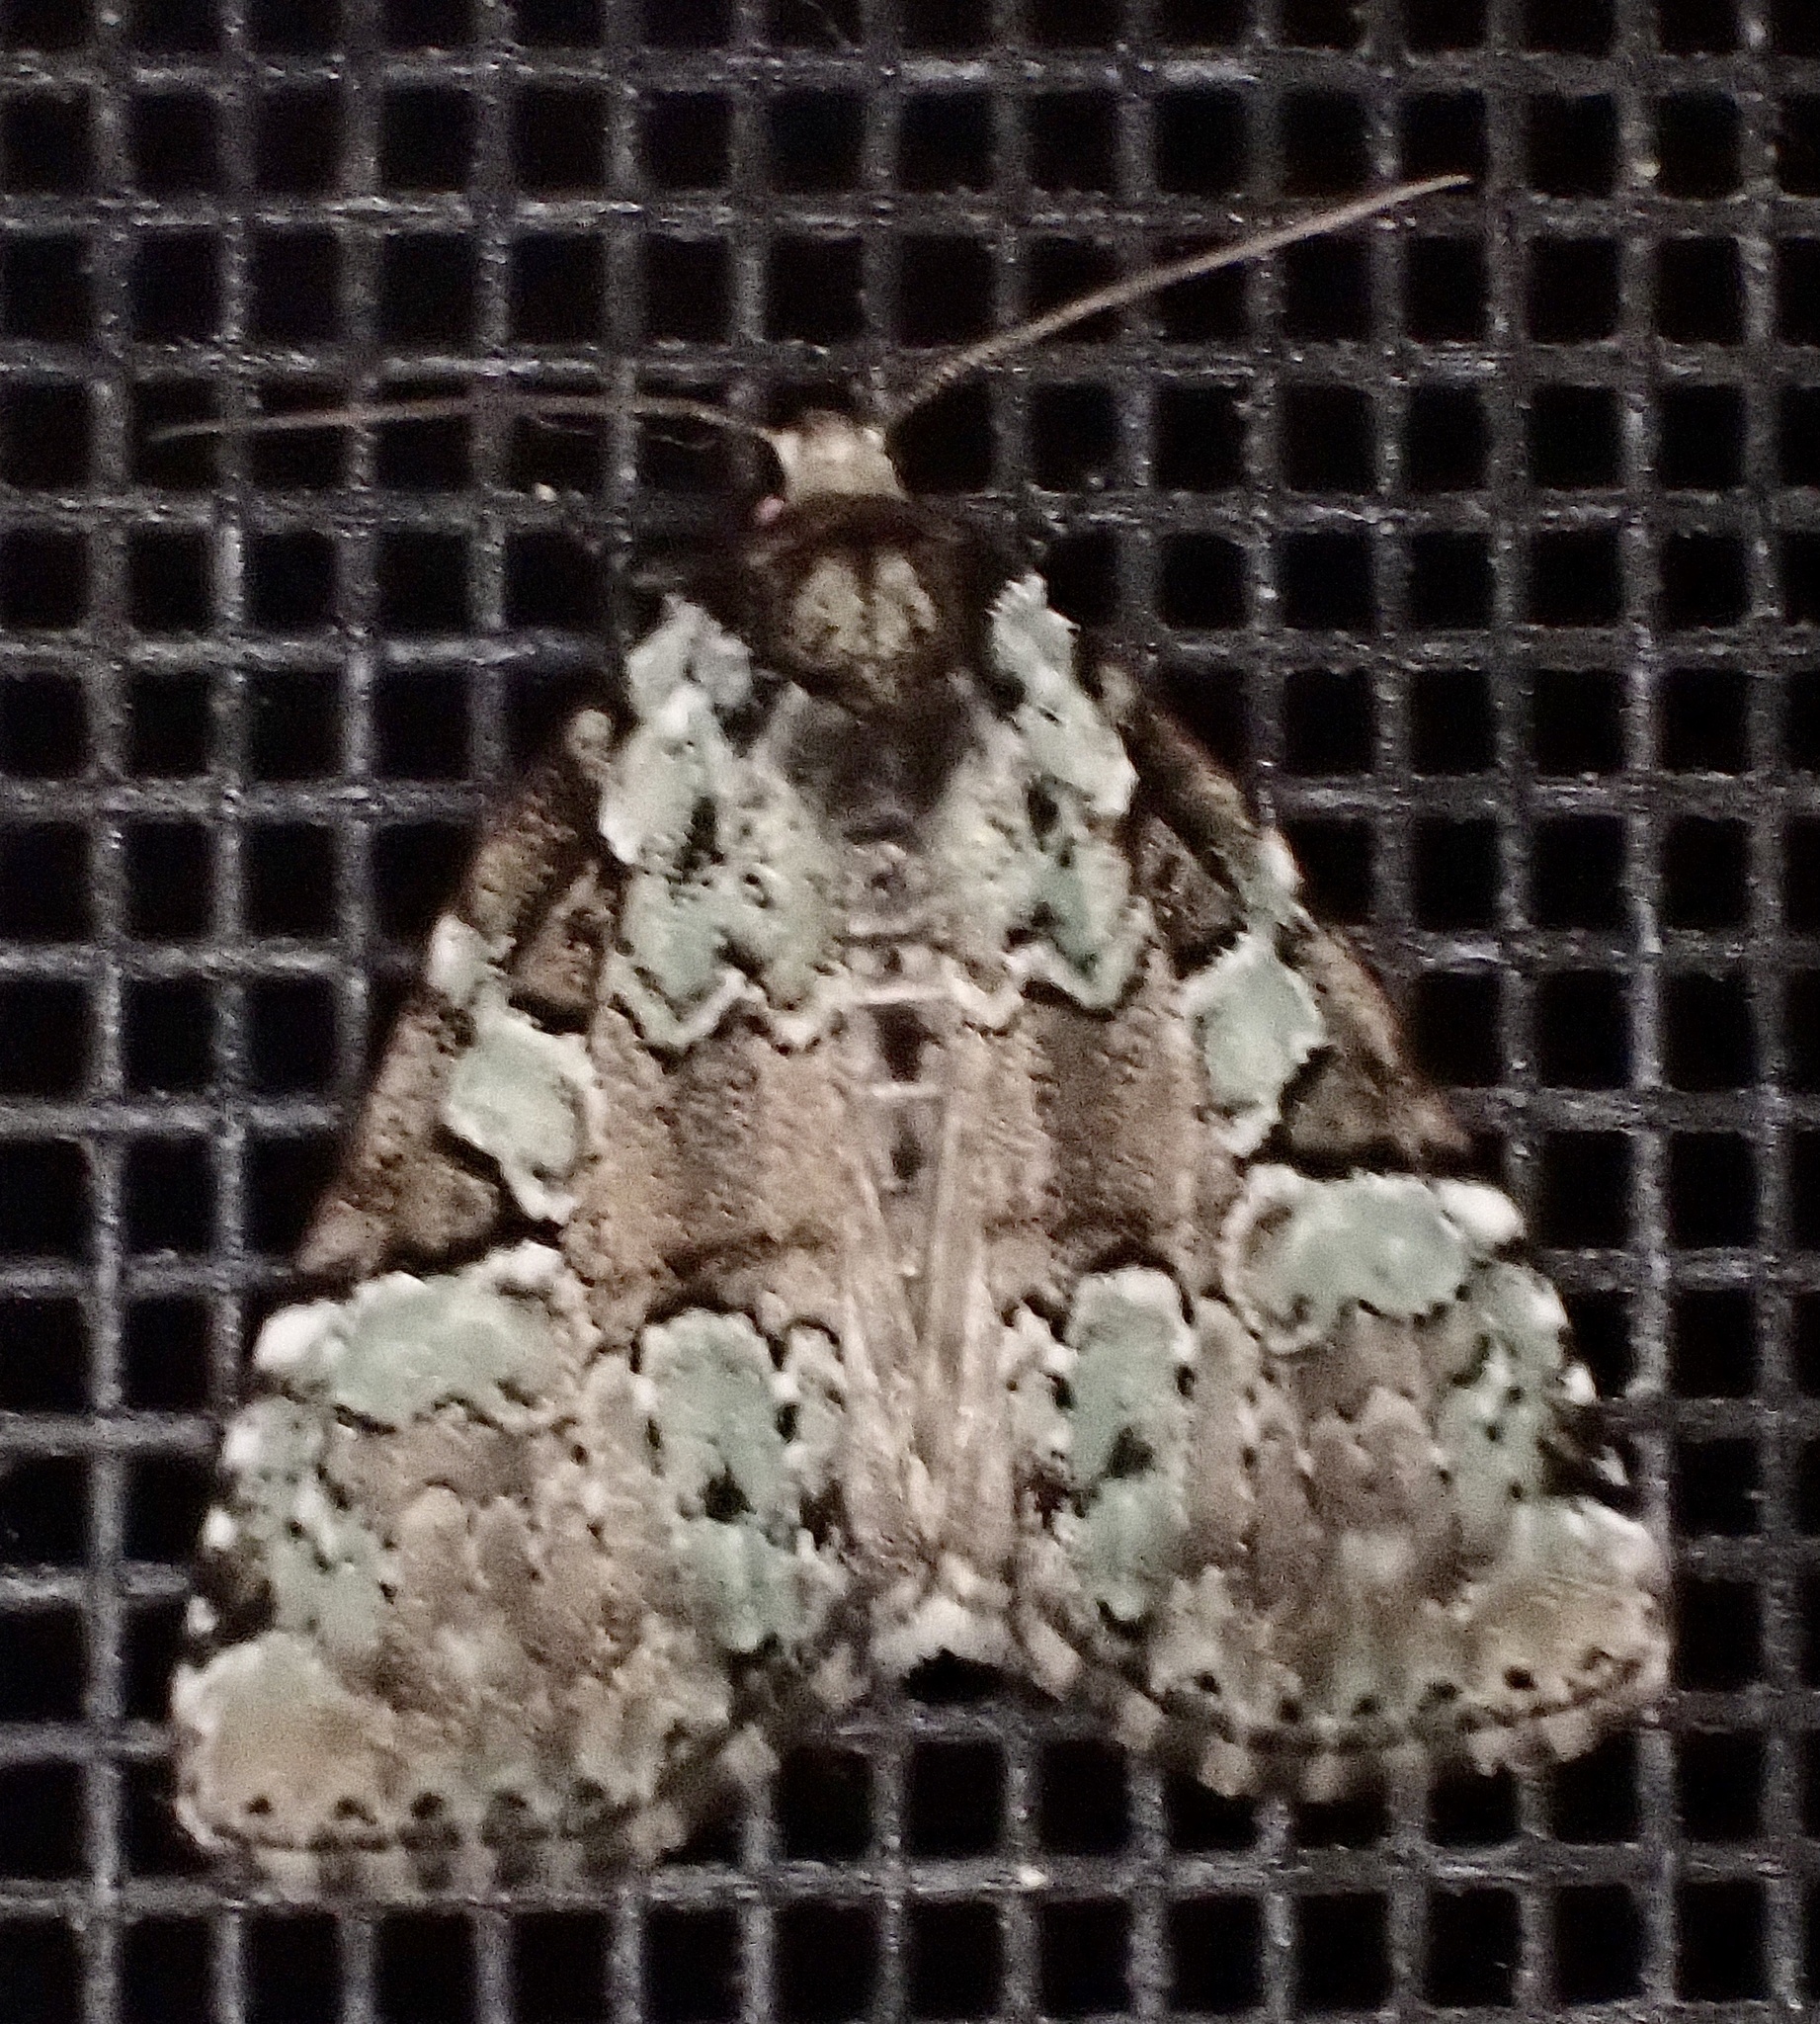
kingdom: Animalia
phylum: Arthropoda
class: Insecta
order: Lepidoptera
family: Noctuidae
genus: Leuconycta
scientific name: Leuconycta lepidula
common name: Marbled-green leuconycta moth
